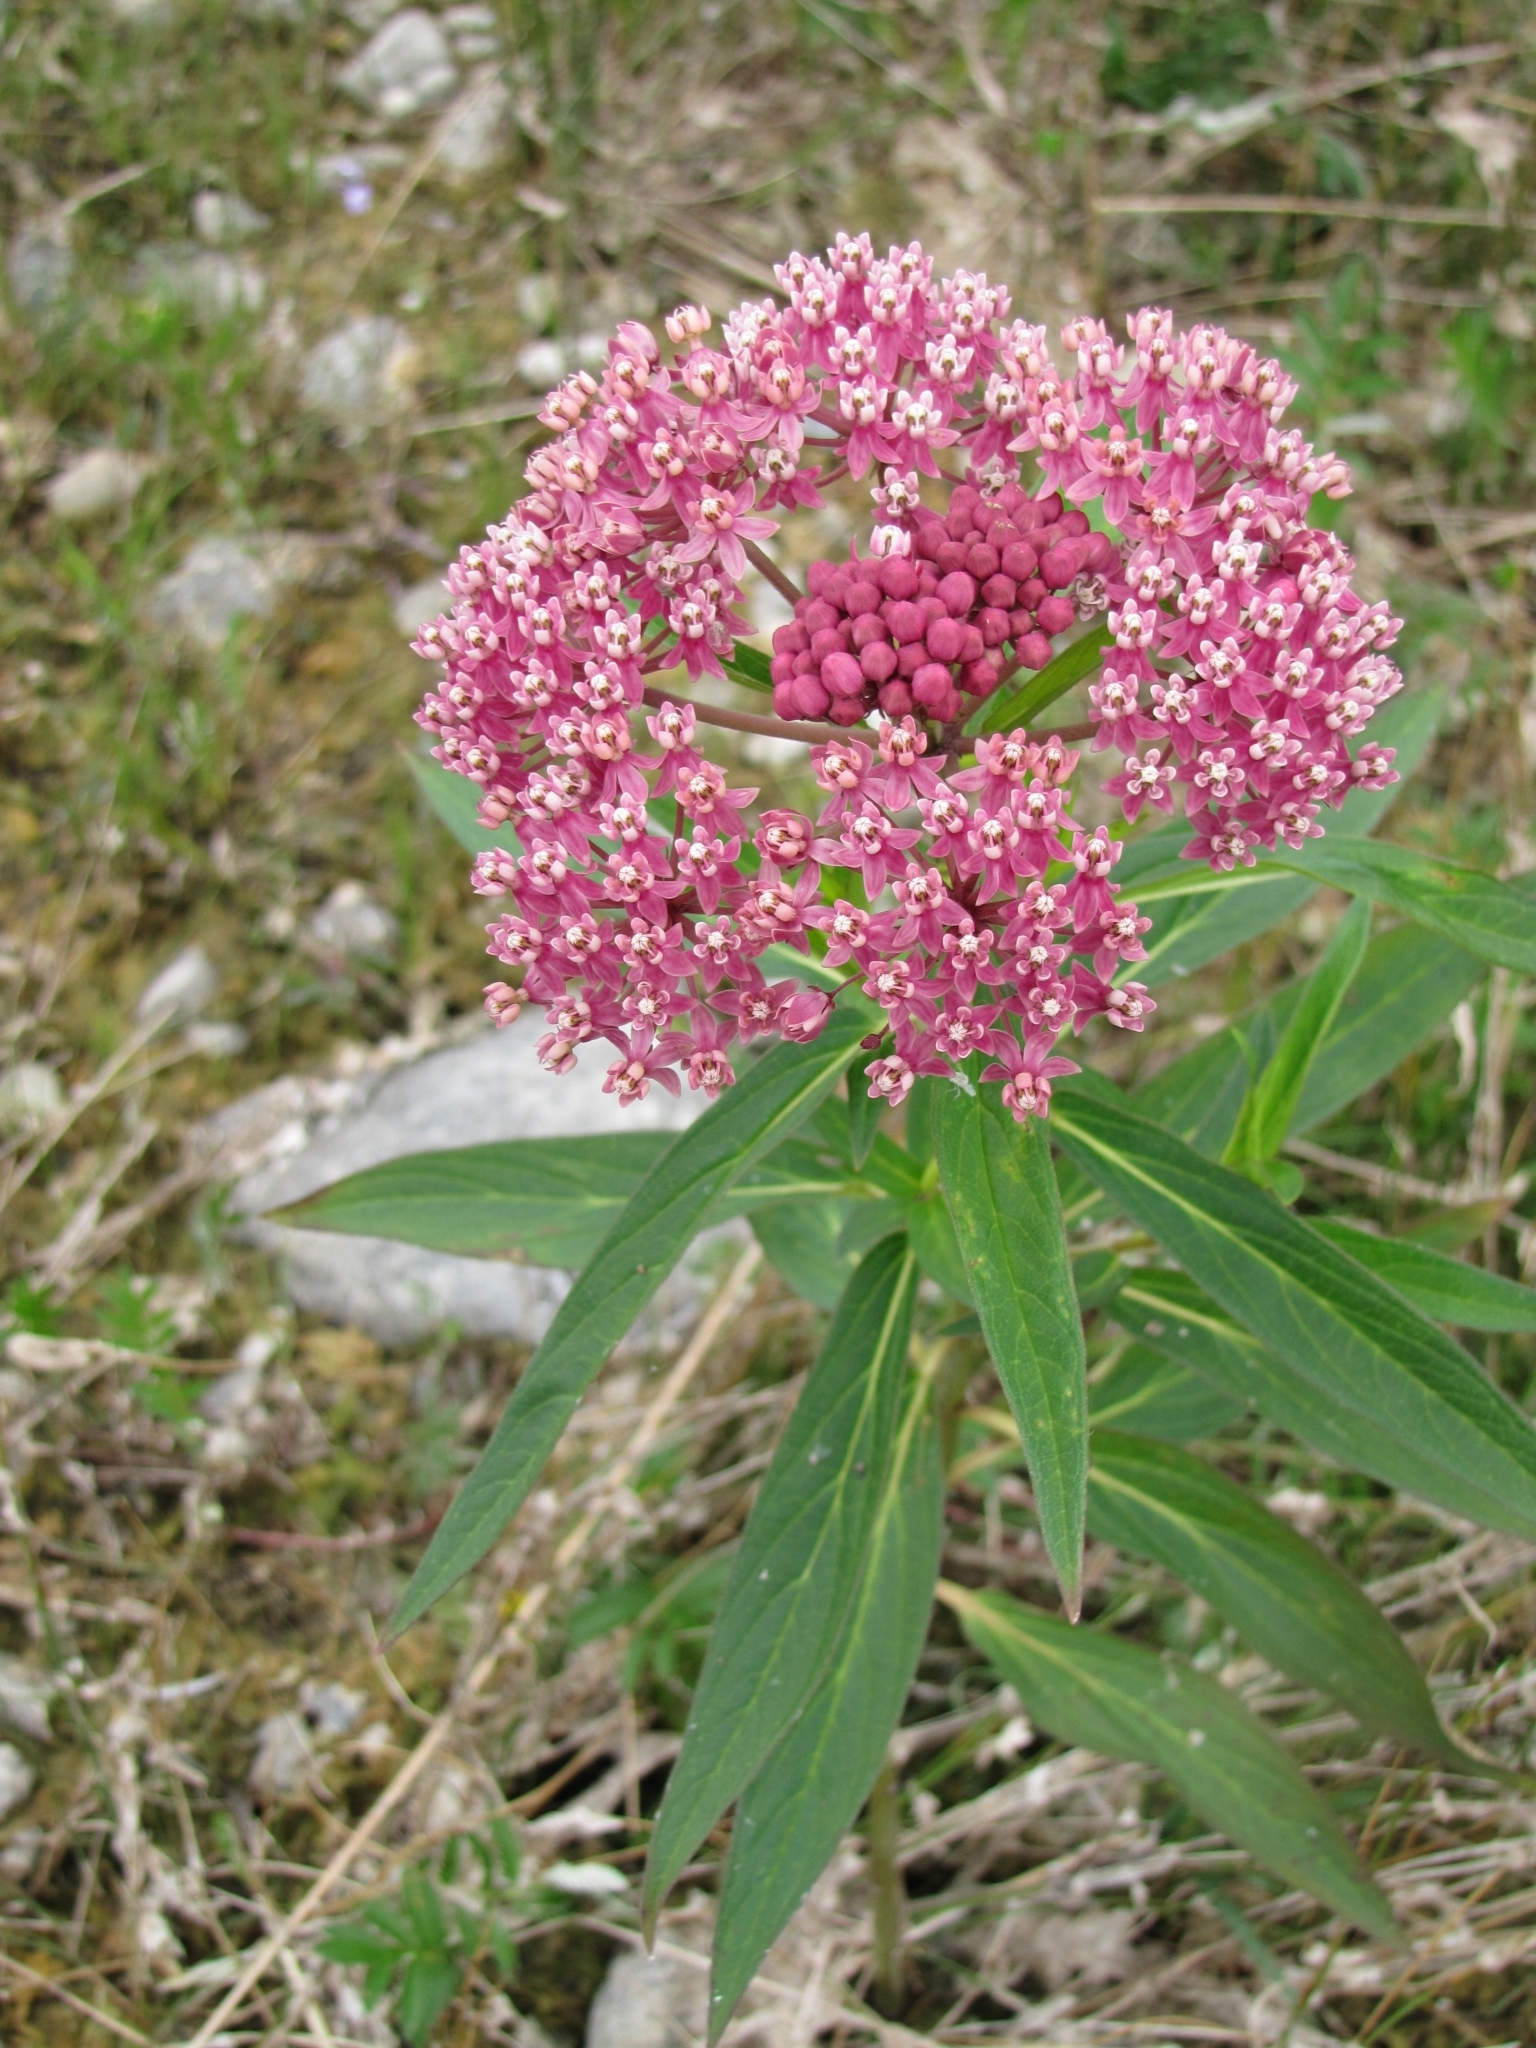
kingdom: Plantae
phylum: Tracheophyta
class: Magnoliopsida
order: Gentianales
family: Apocynaceae
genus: Asclepias
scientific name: Asclepias incarnata
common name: Swamp milkweed
